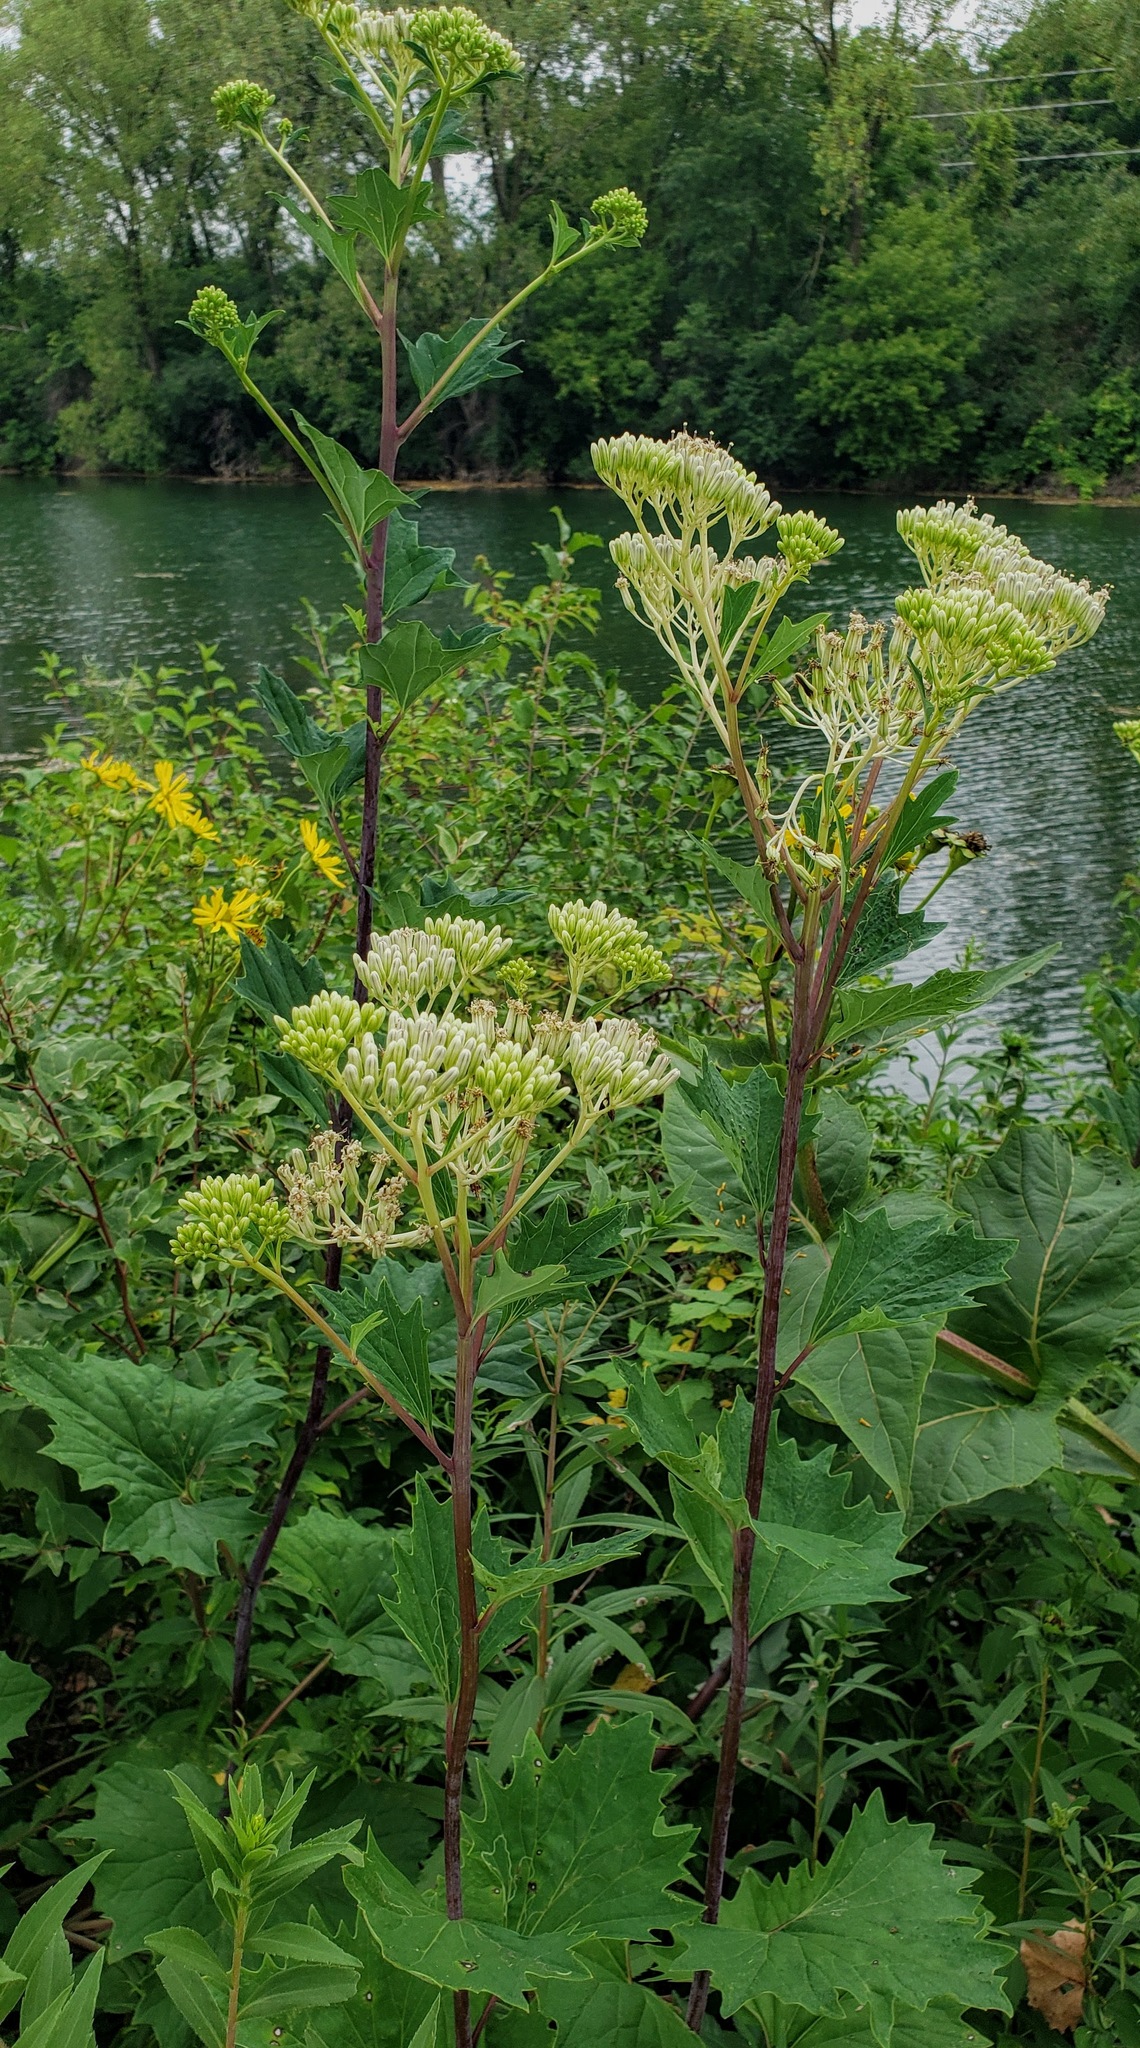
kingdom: Plantae
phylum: Tracheophyta
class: Magnoliopsida
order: Asterales
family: Asteraceae
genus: Arnoglossum
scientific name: Arnoglossum atriplicifolium
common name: Pale indian-plantain
